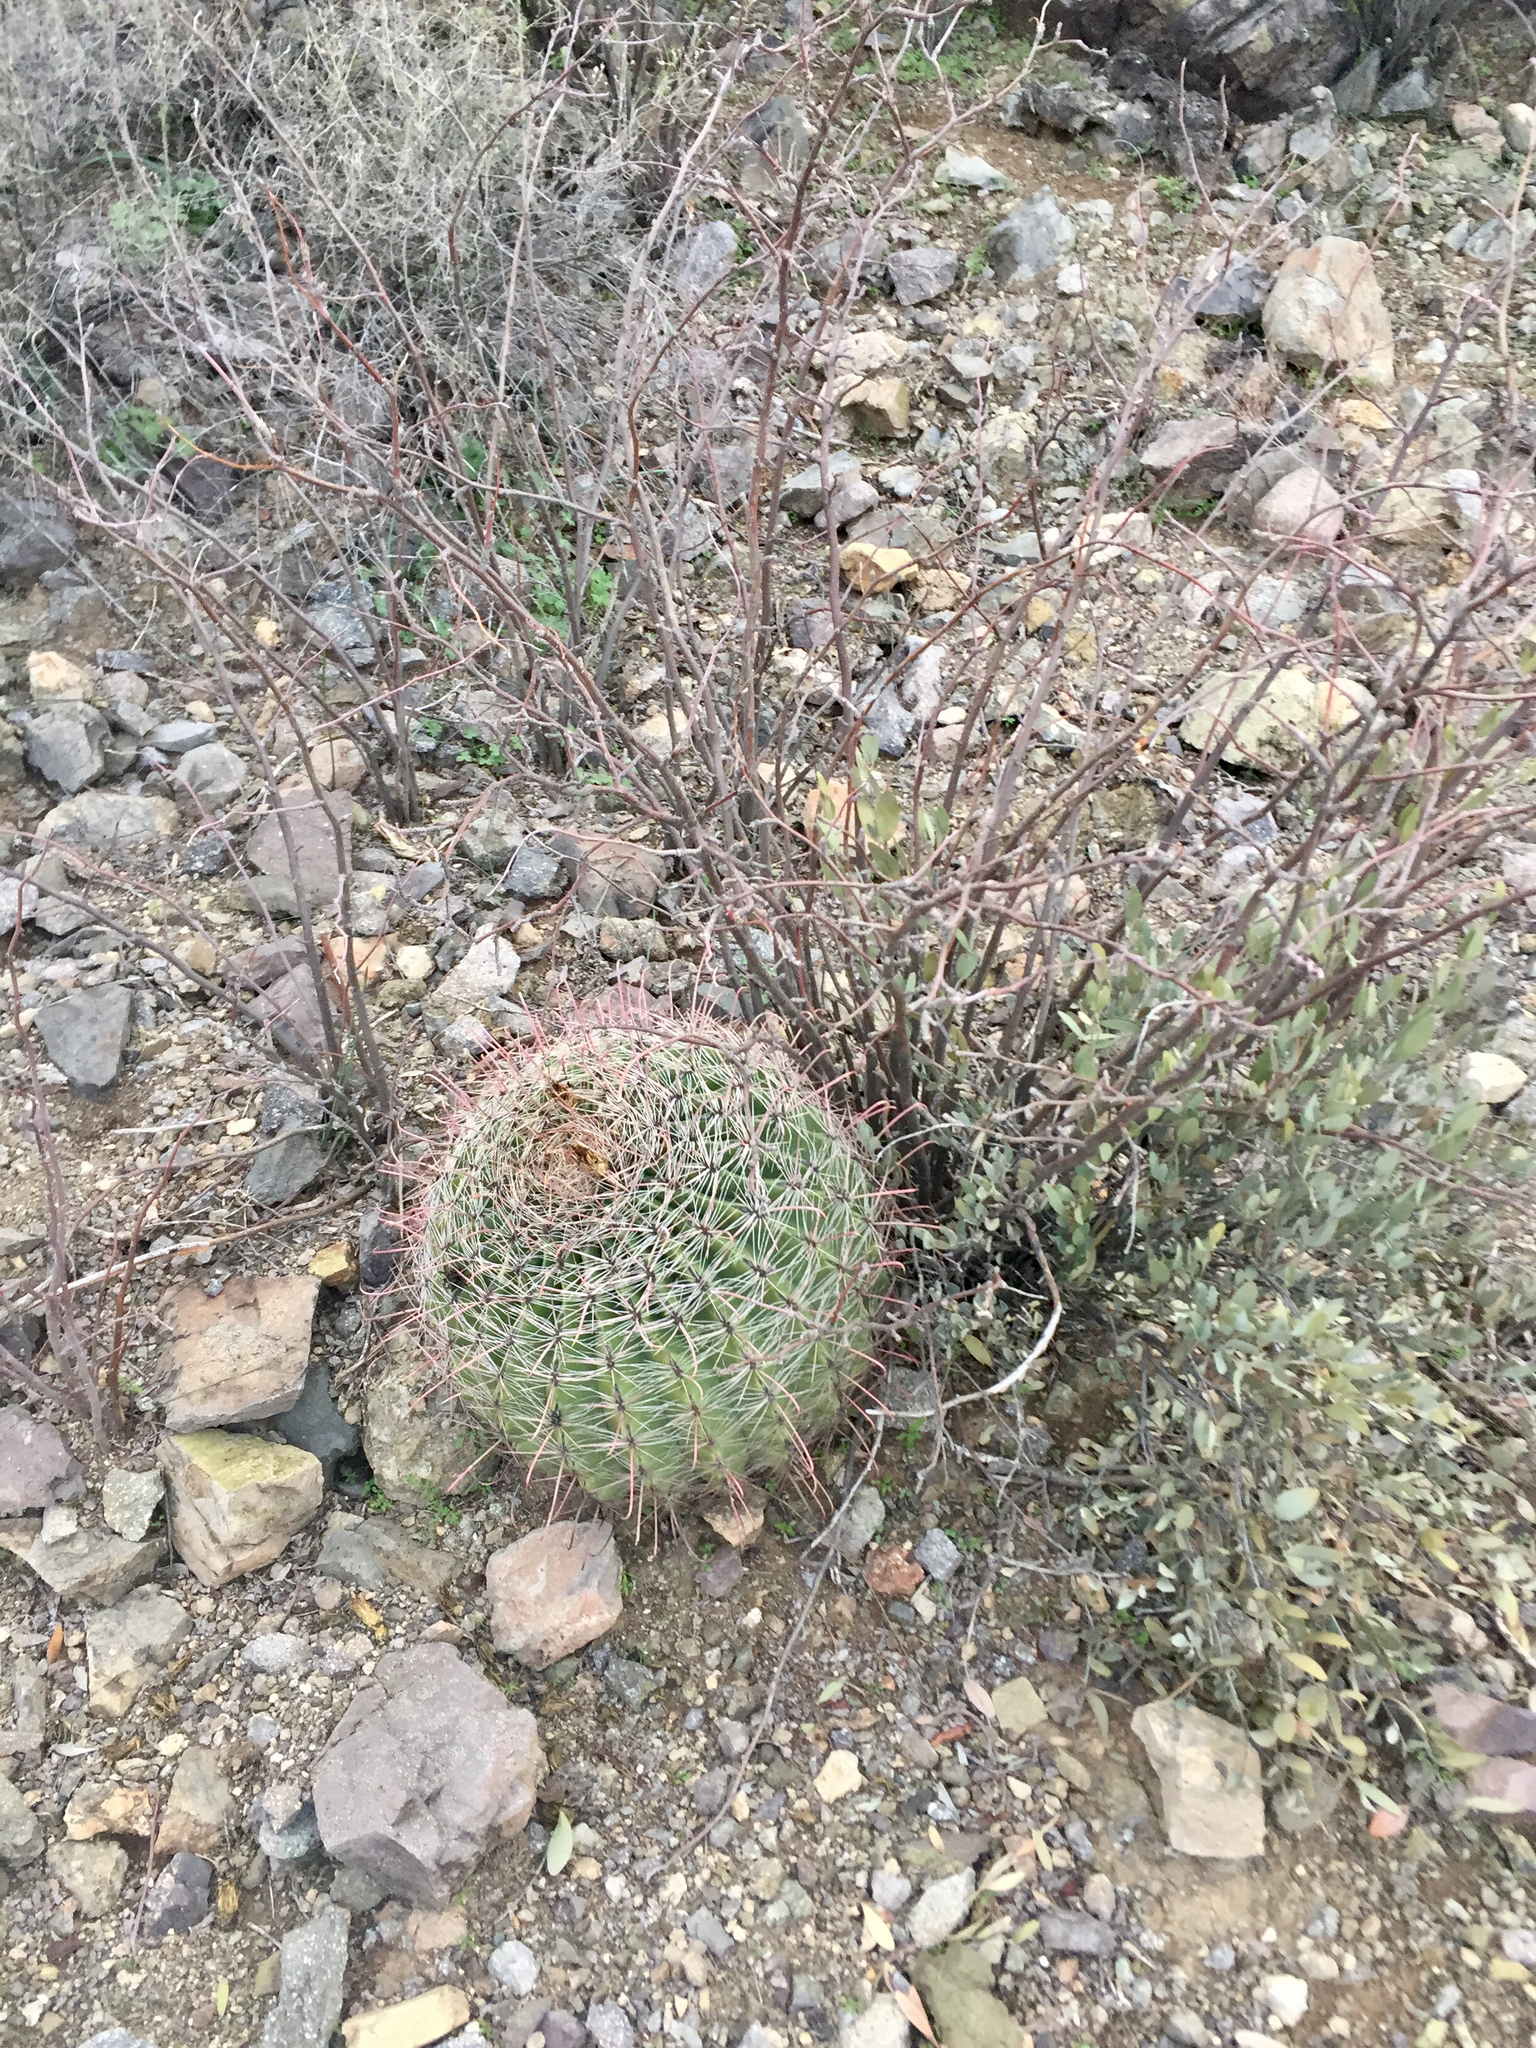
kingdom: Plantae
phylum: Tracheophyta
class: Magnoliopsida
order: Caryophyllales
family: Cactaceae
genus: Ferocactus
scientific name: Ferocactus wislizeni
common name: Candy barrel cactus
